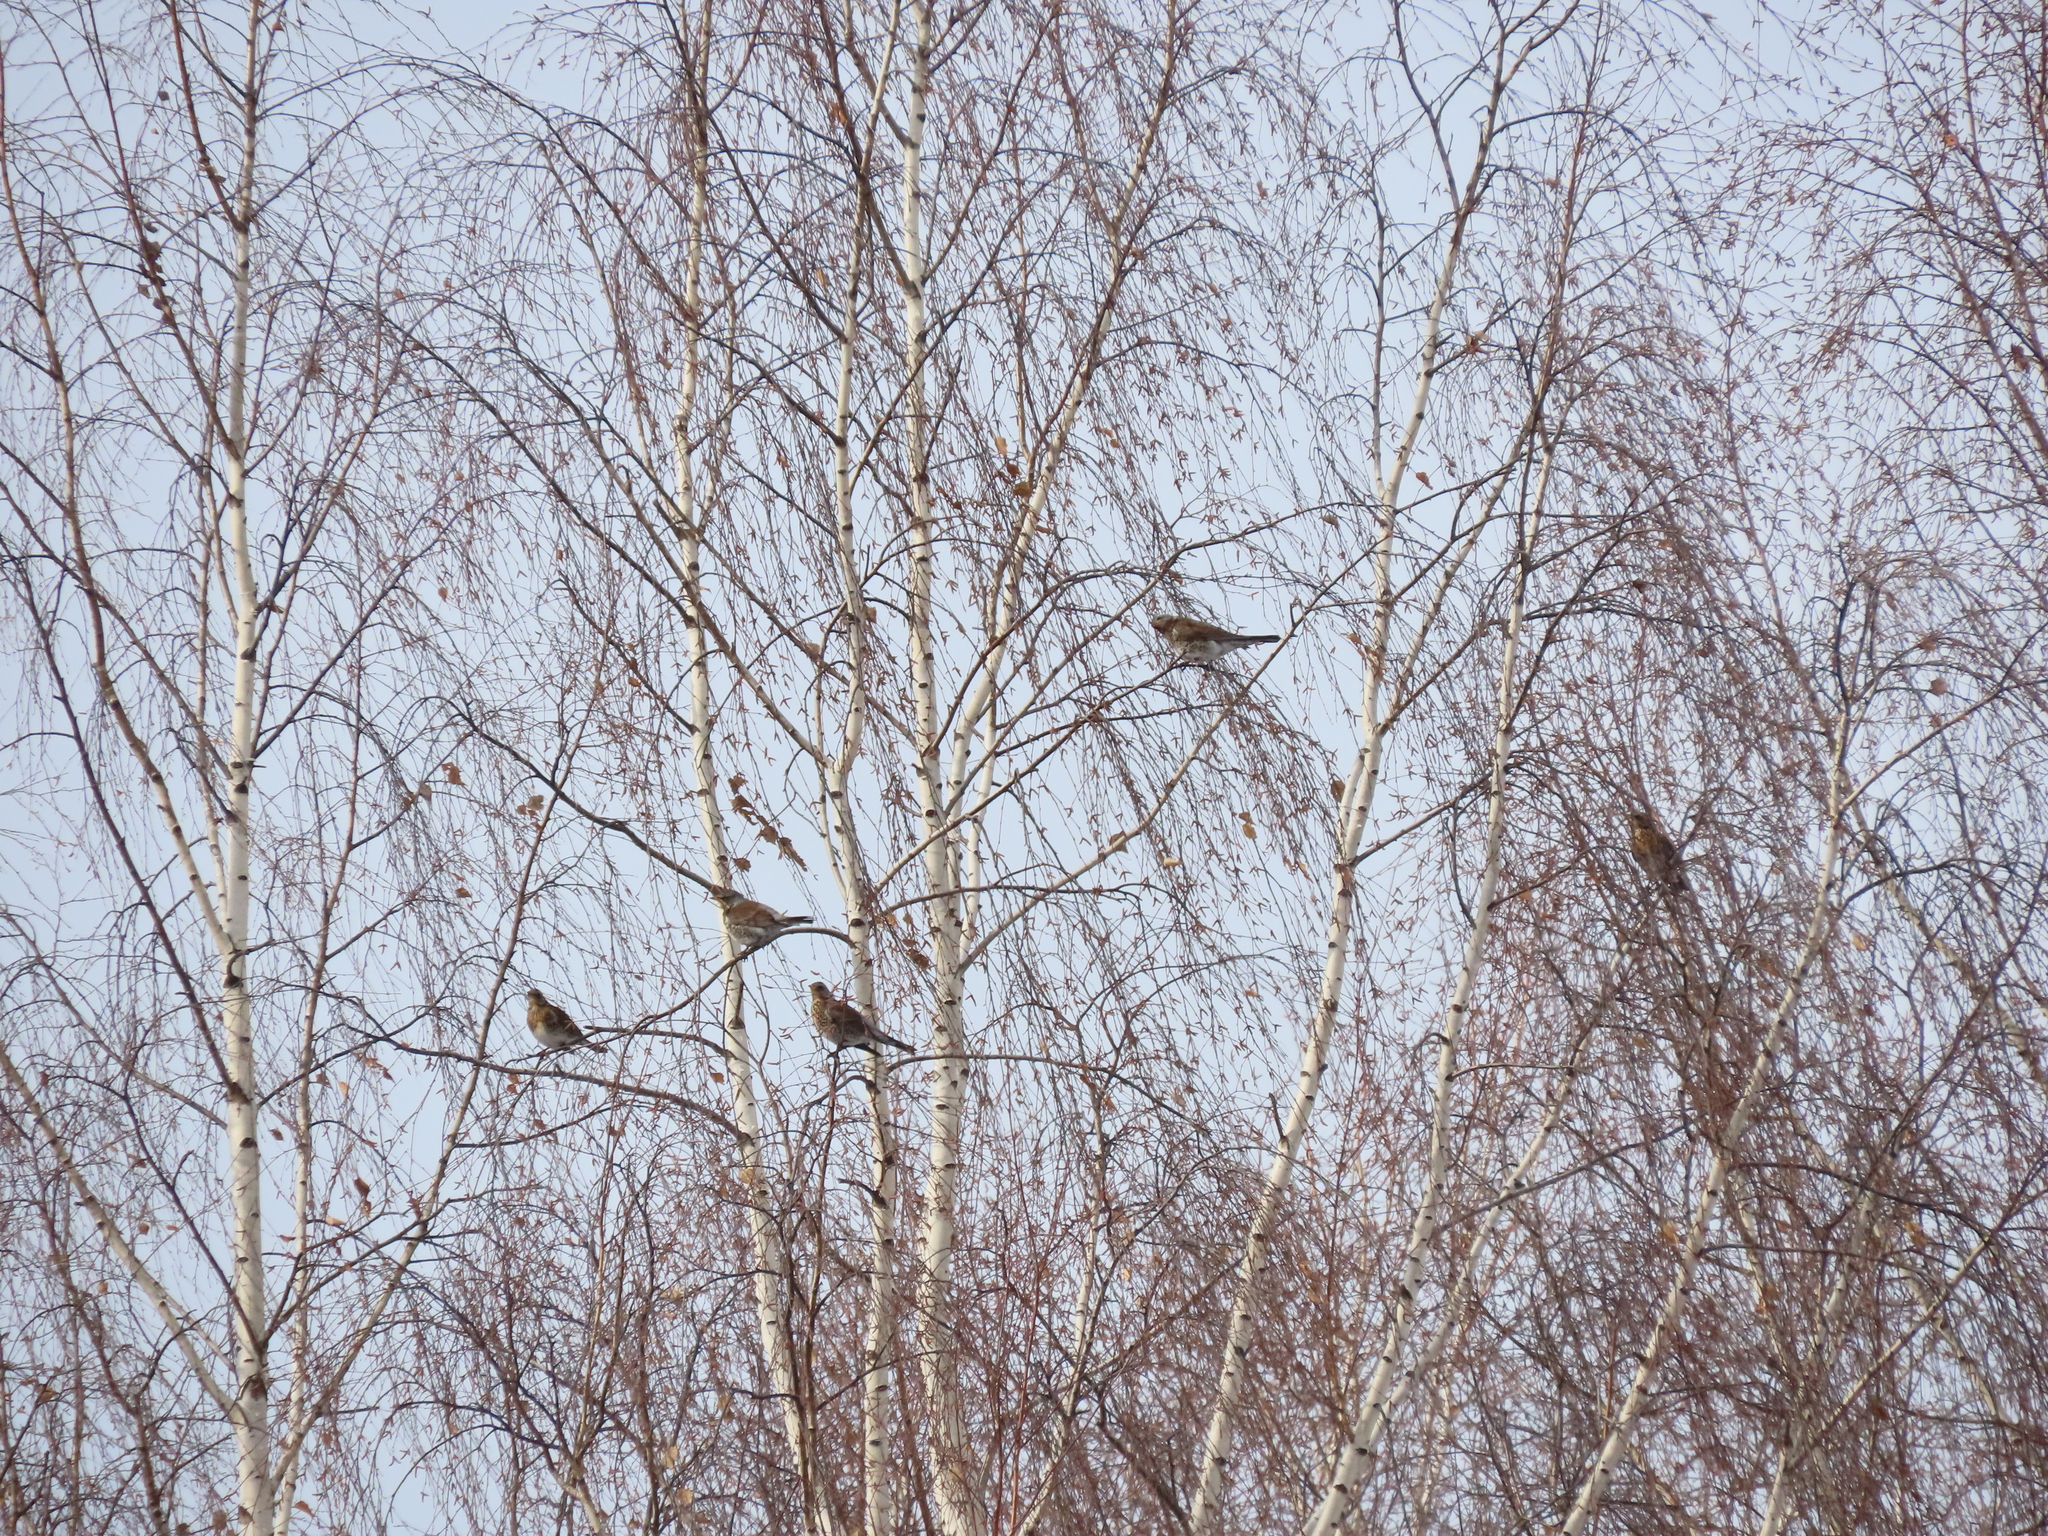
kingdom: Animalia
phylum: Chordata
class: Aves
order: Passeriformes
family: Turdidae
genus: Turdus
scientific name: Turdus pilaris
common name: Fieldfare
